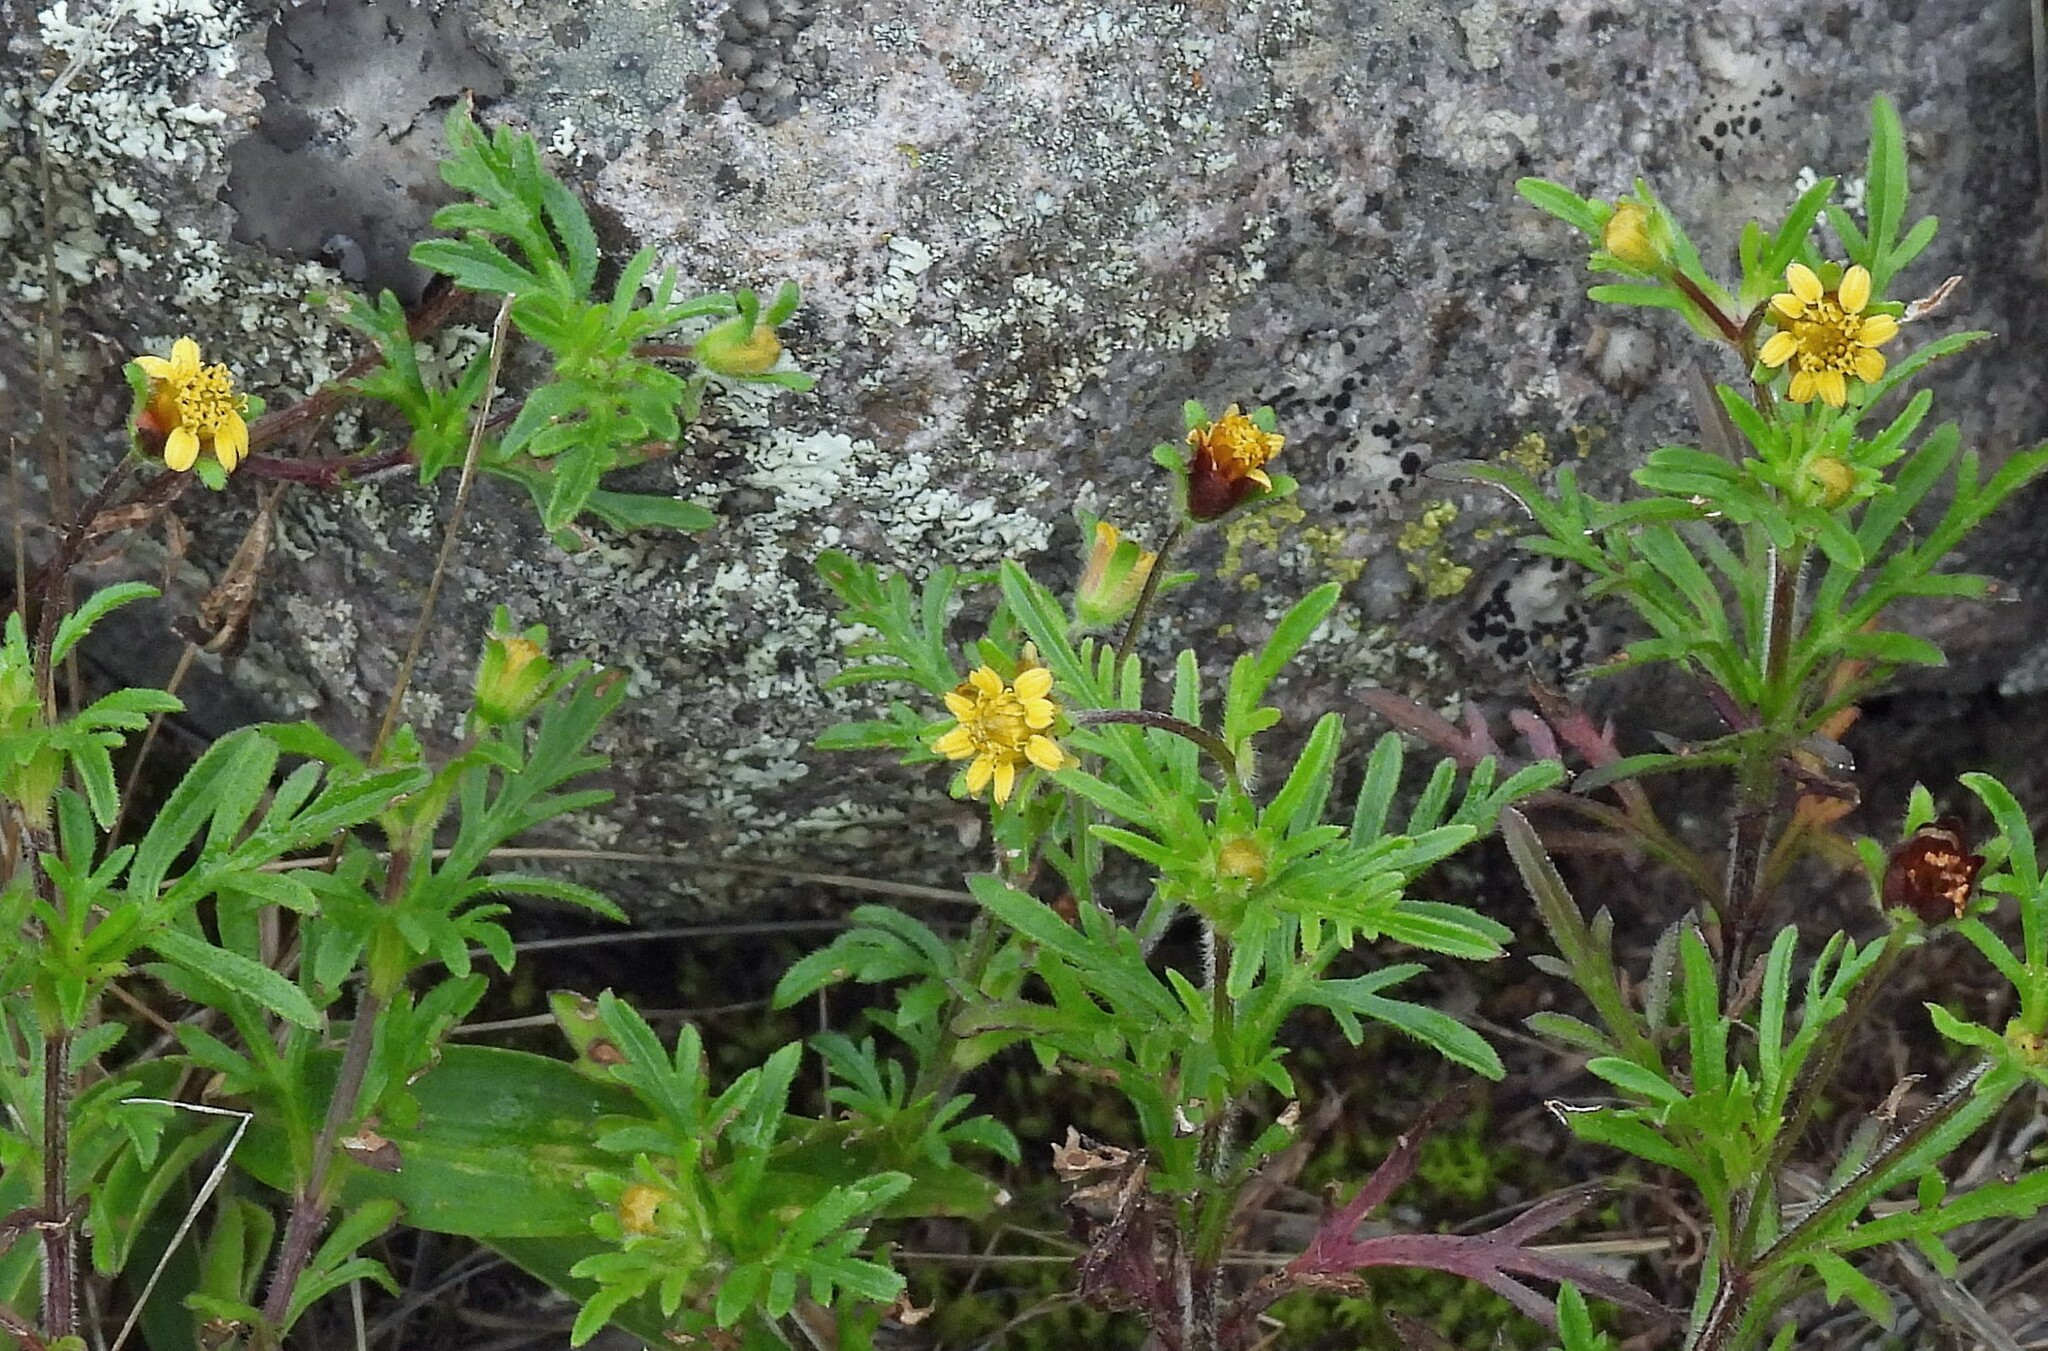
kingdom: Plantae
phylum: Tracheophyta
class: Magnoliopsida
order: Asterales
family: Asteraceae
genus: Heterosperma
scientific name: Heterosperma tenuisectum
